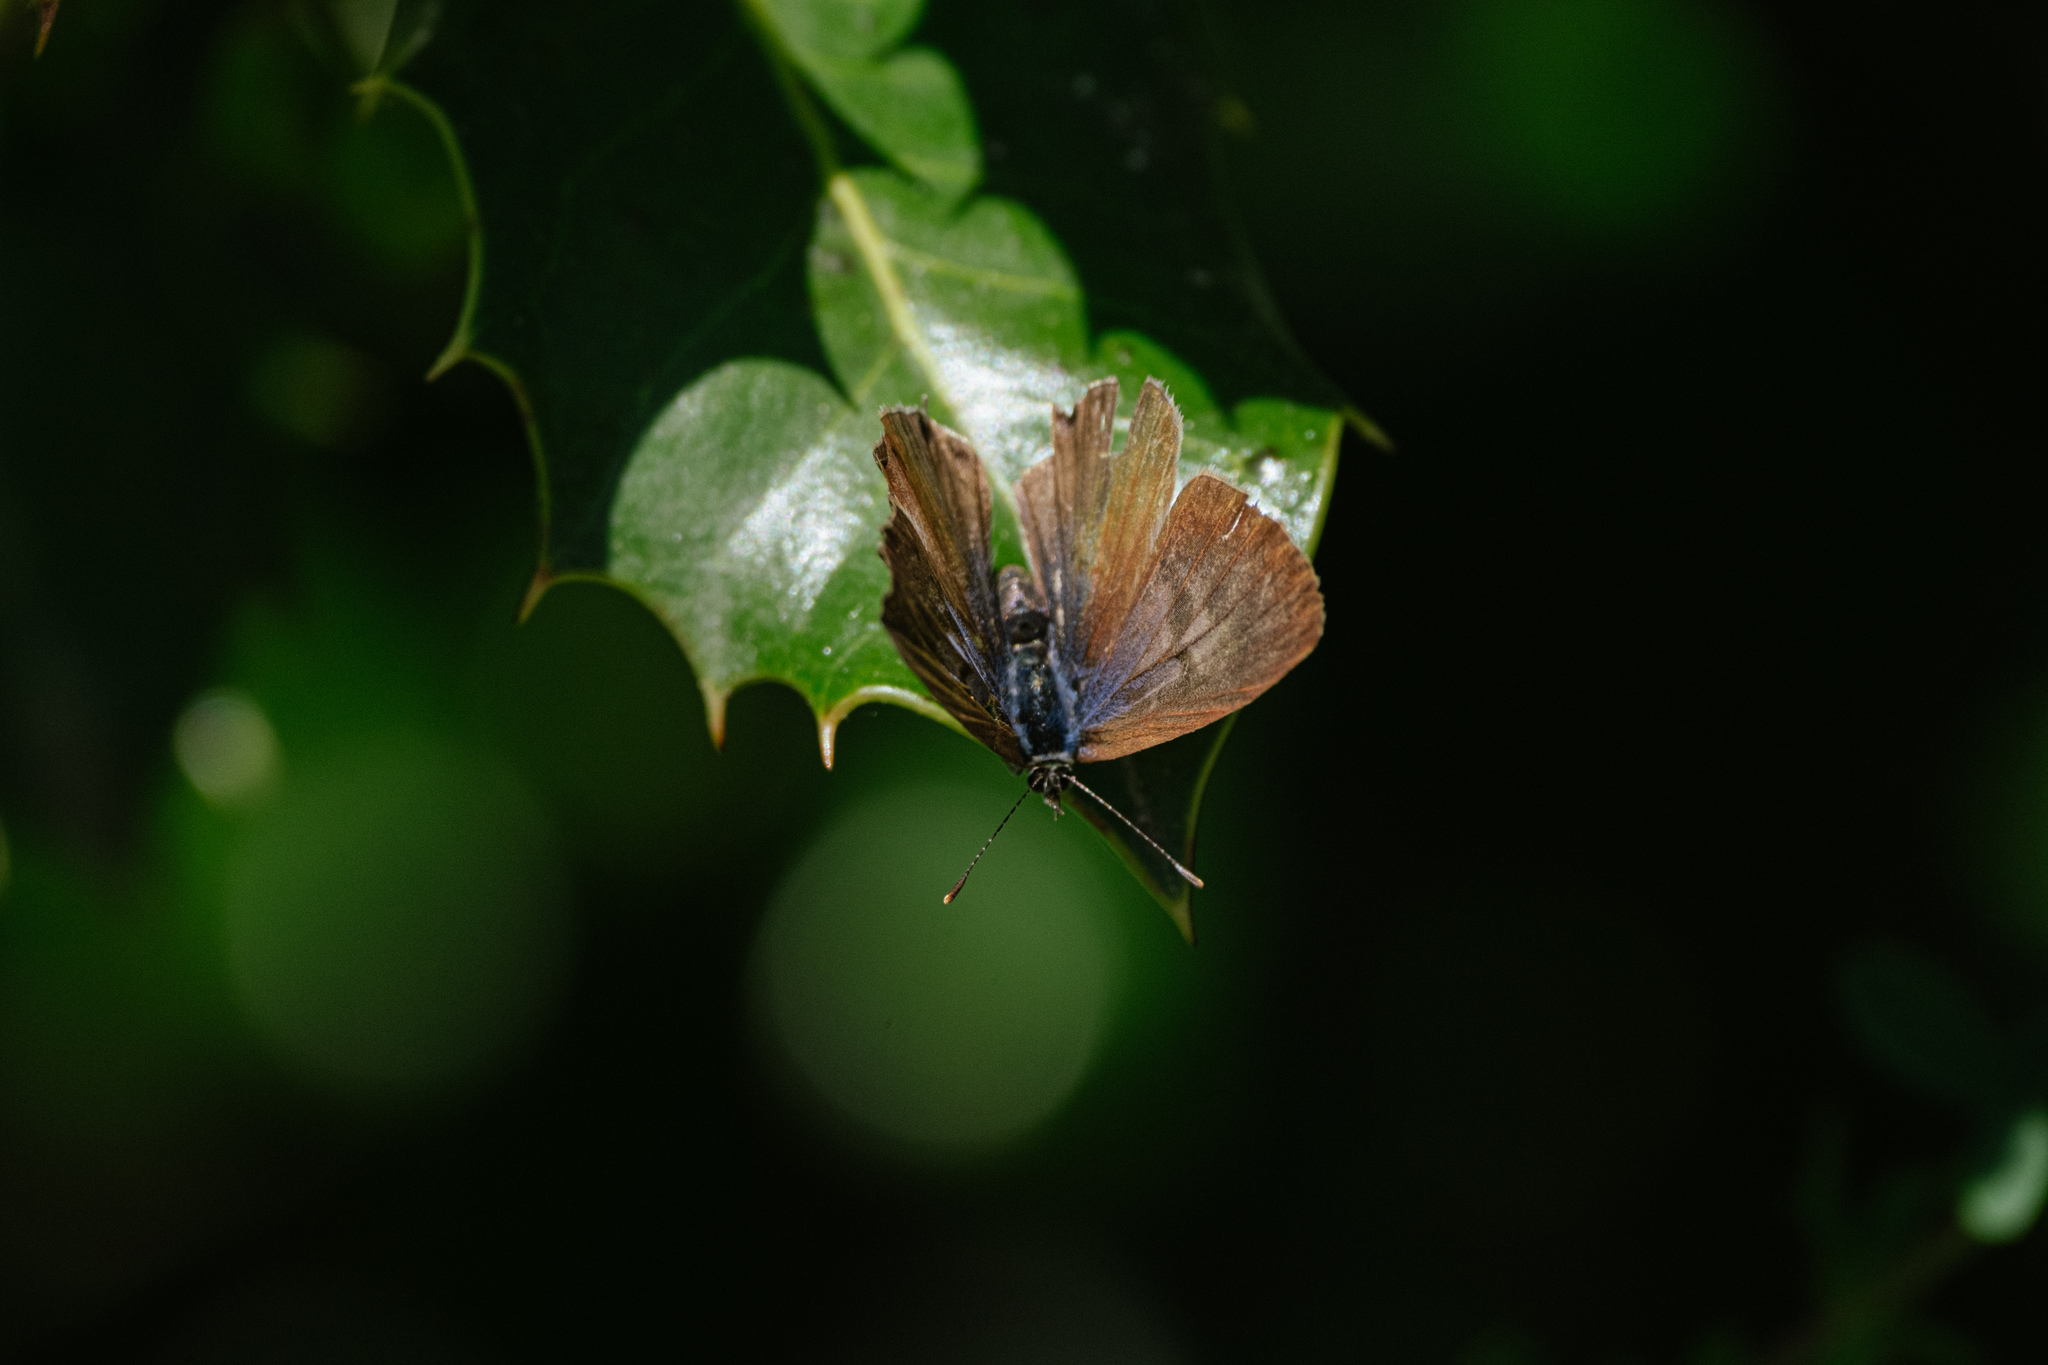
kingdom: Animalia
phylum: Arthropoda
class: Insecta
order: Lepidoptera
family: Lycaenidae
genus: Leptotes
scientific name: Leptotes pirithous
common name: Lang's short-tailed blue
